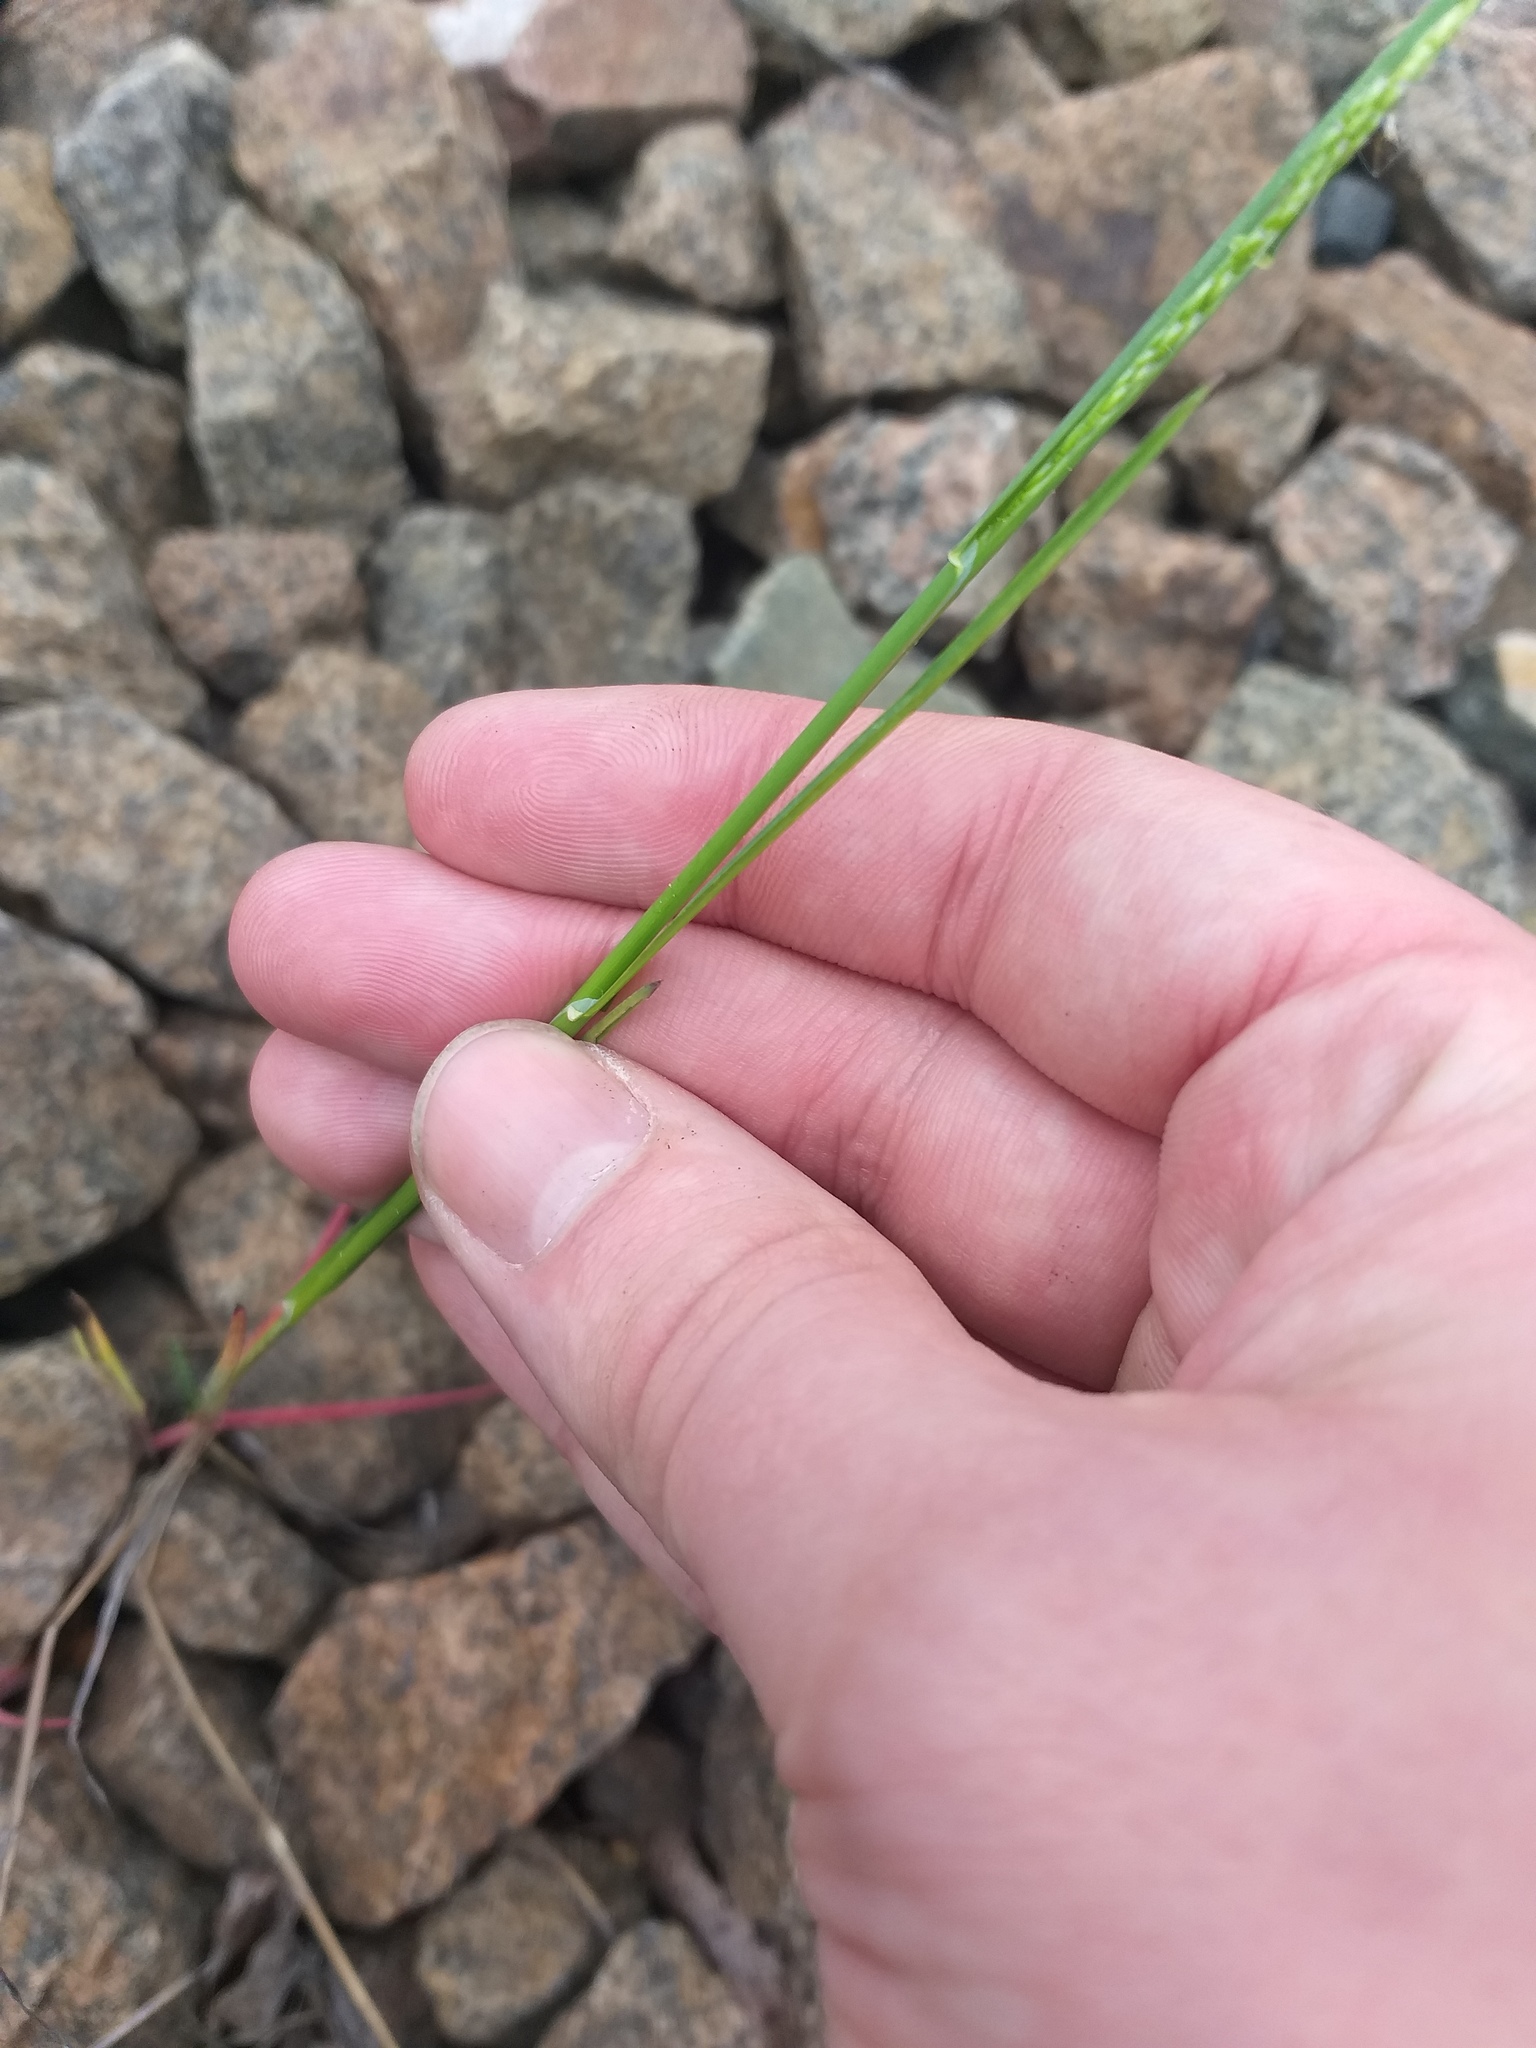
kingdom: Plantae
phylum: Tracheophyta
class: Liliopsida
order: Poales
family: Poaceae
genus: Poa
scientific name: Poa palustris
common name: Swamp meadow-grass
